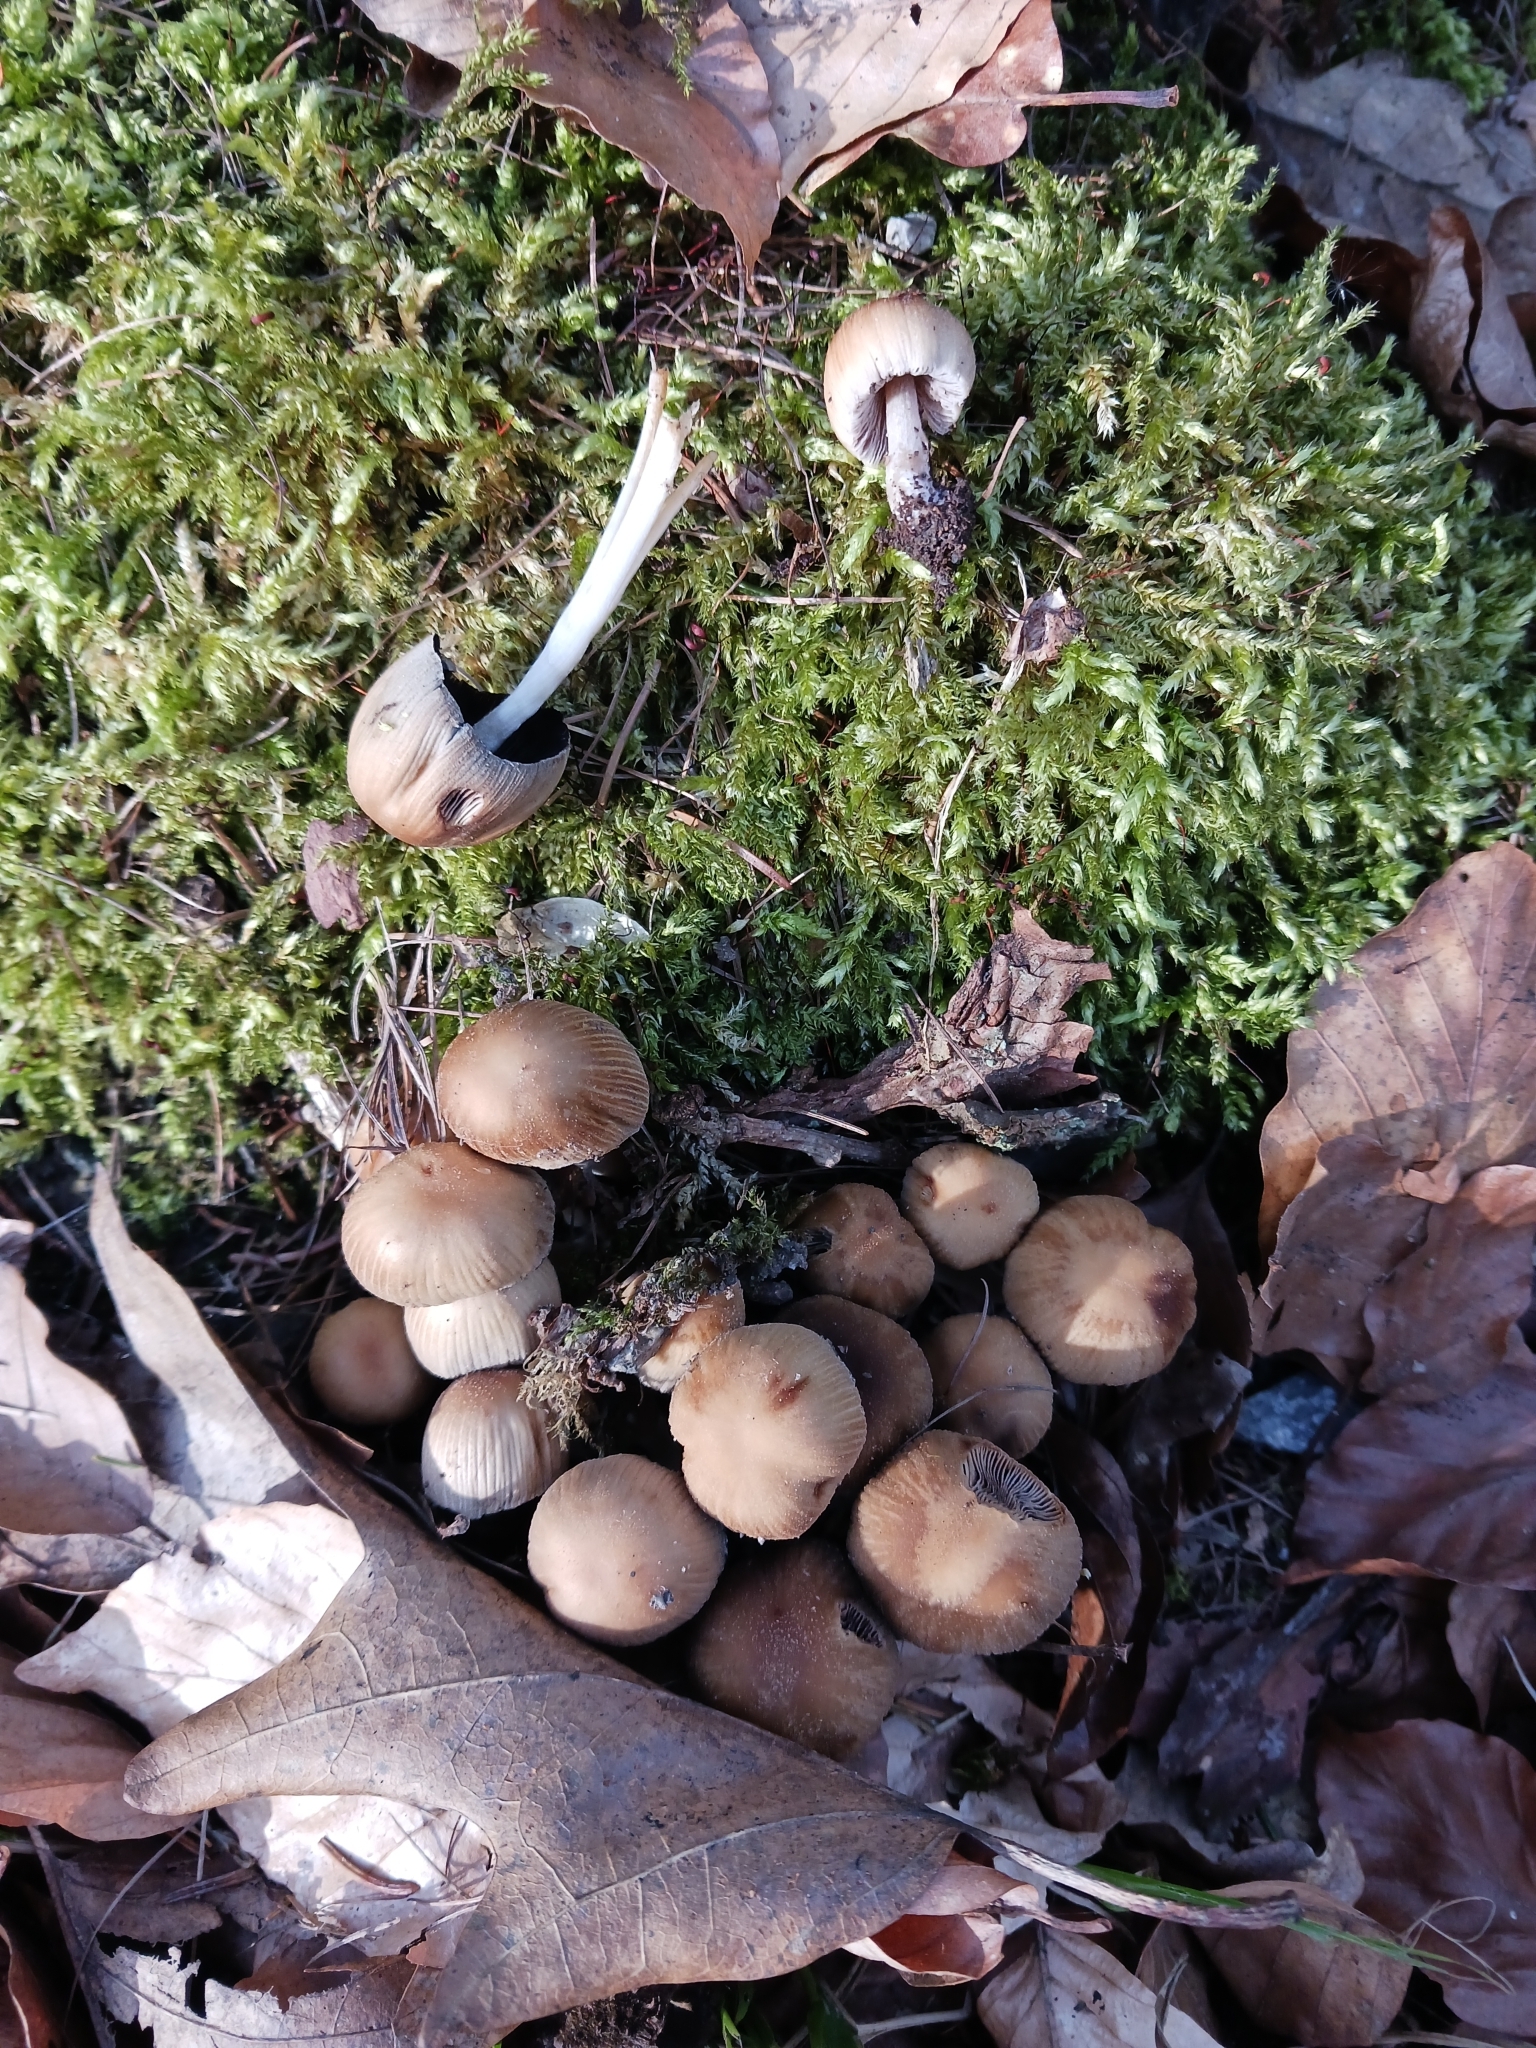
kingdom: Fungi
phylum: Basidiomycota
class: Agaricomycetes
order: Agaricales
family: Psathyrellaceae
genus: Coprinellus
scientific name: Coprinellus
